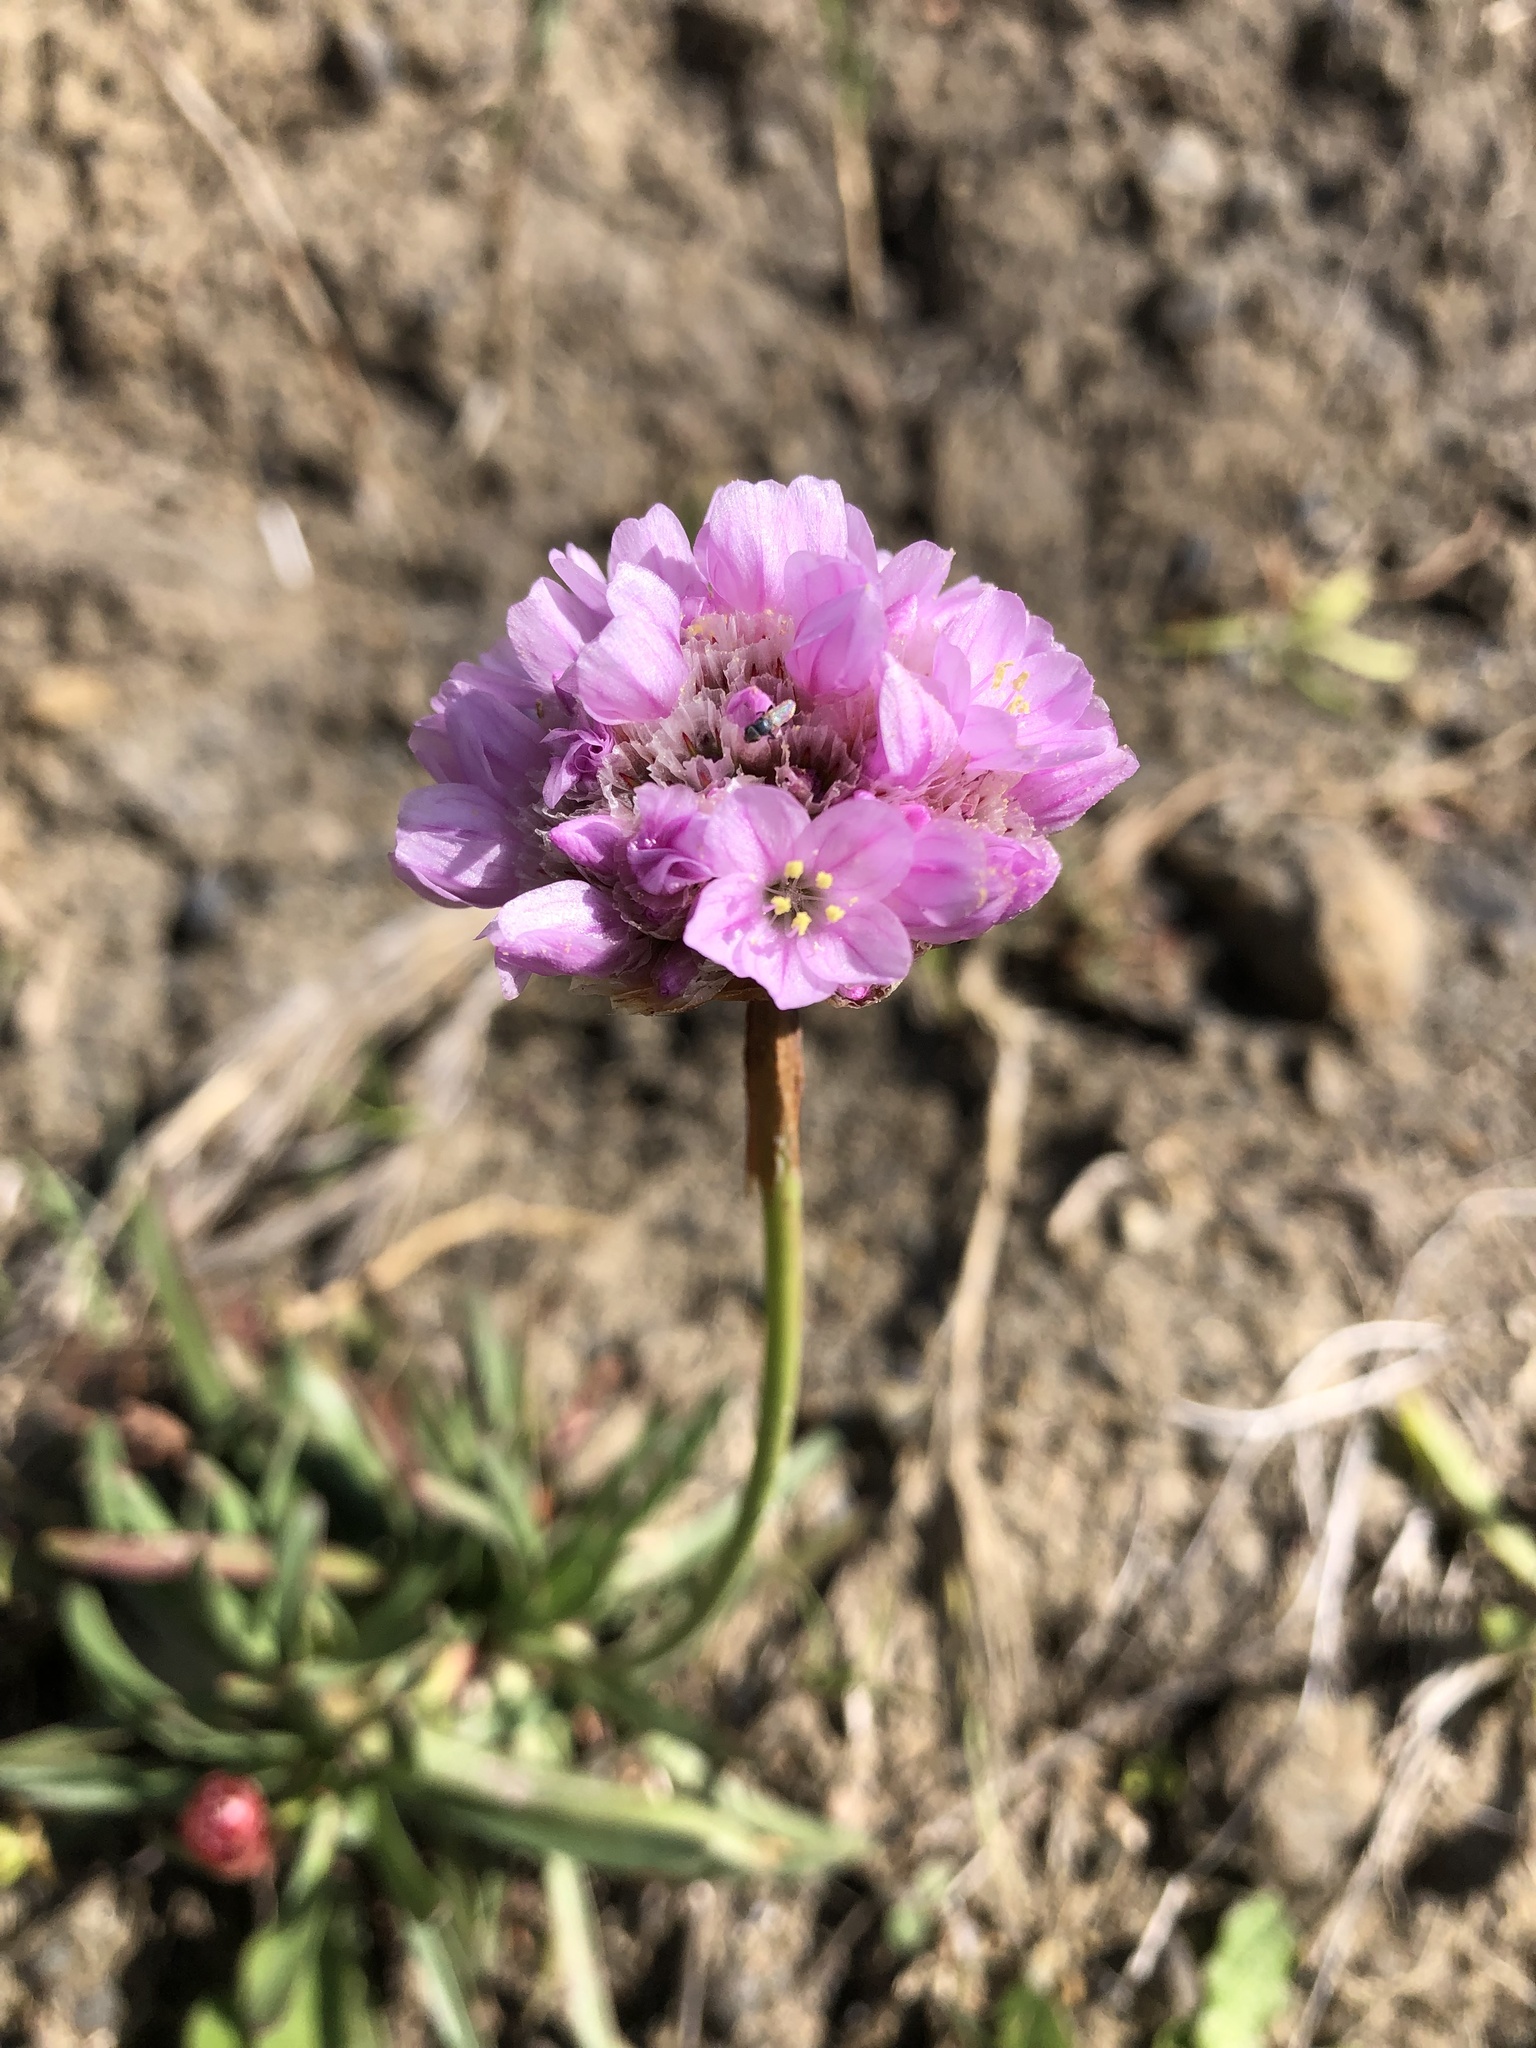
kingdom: Plantae
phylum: Tracheophyta
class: Magnoliopsida
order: Caryophyllales
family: Plumbaginaceae
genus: Armeria
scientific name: Armeria maritima
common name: Thrift
